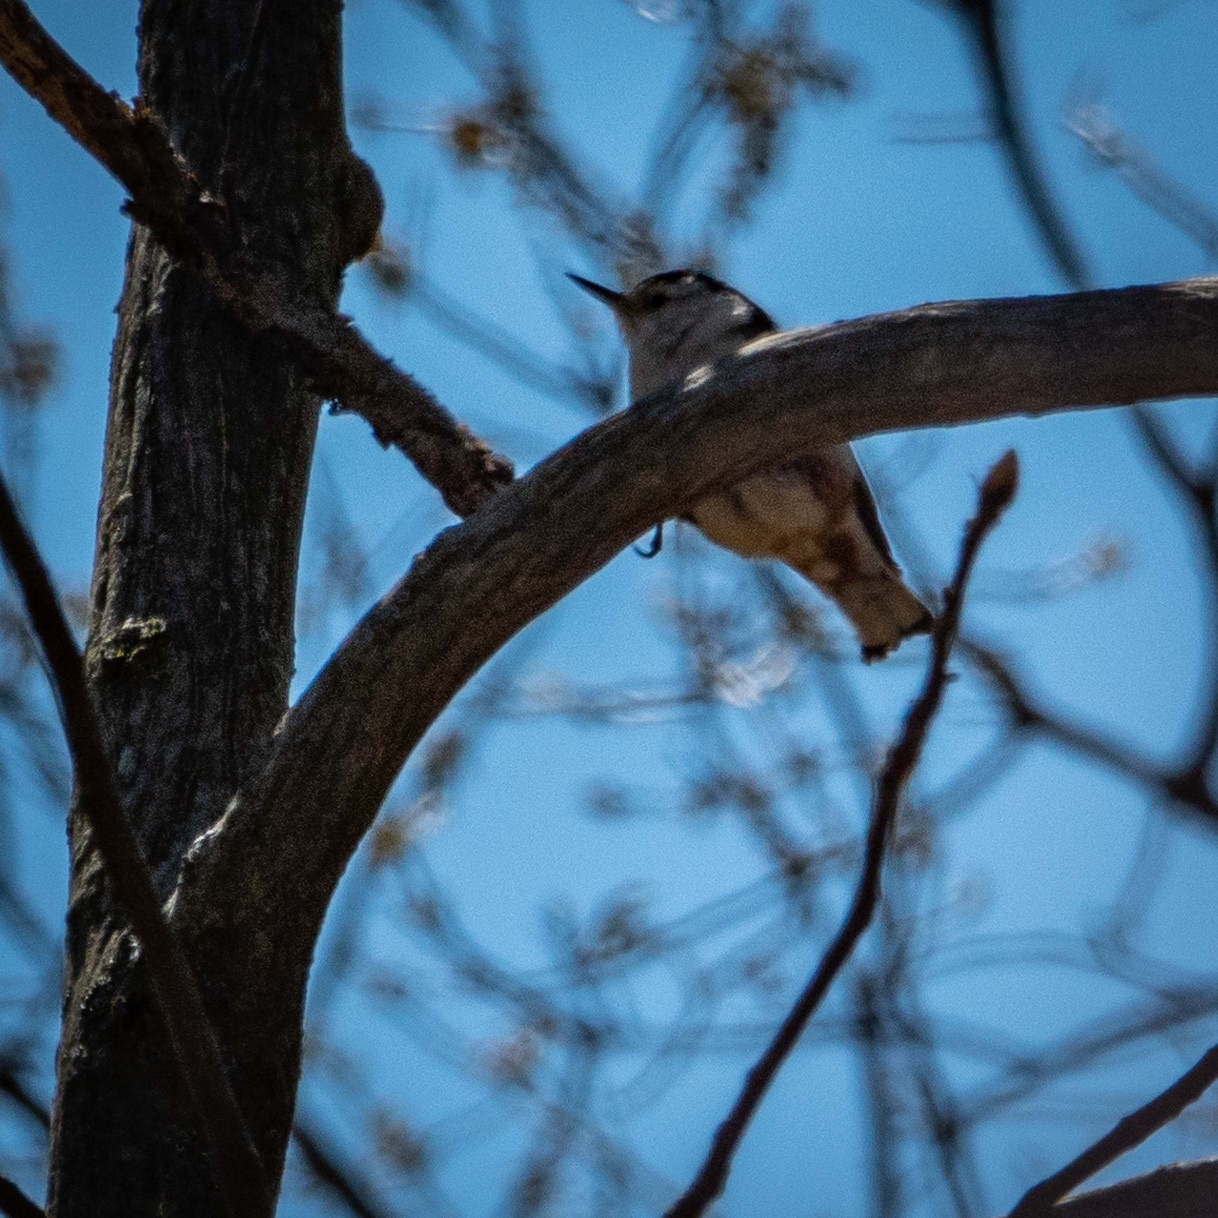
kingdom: Animalia
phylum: Chordata
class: Aves
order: Passeriformes
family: Sittidae
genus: Sitta
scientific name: Sitta carolinensis
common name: White-breasted nuthatch
